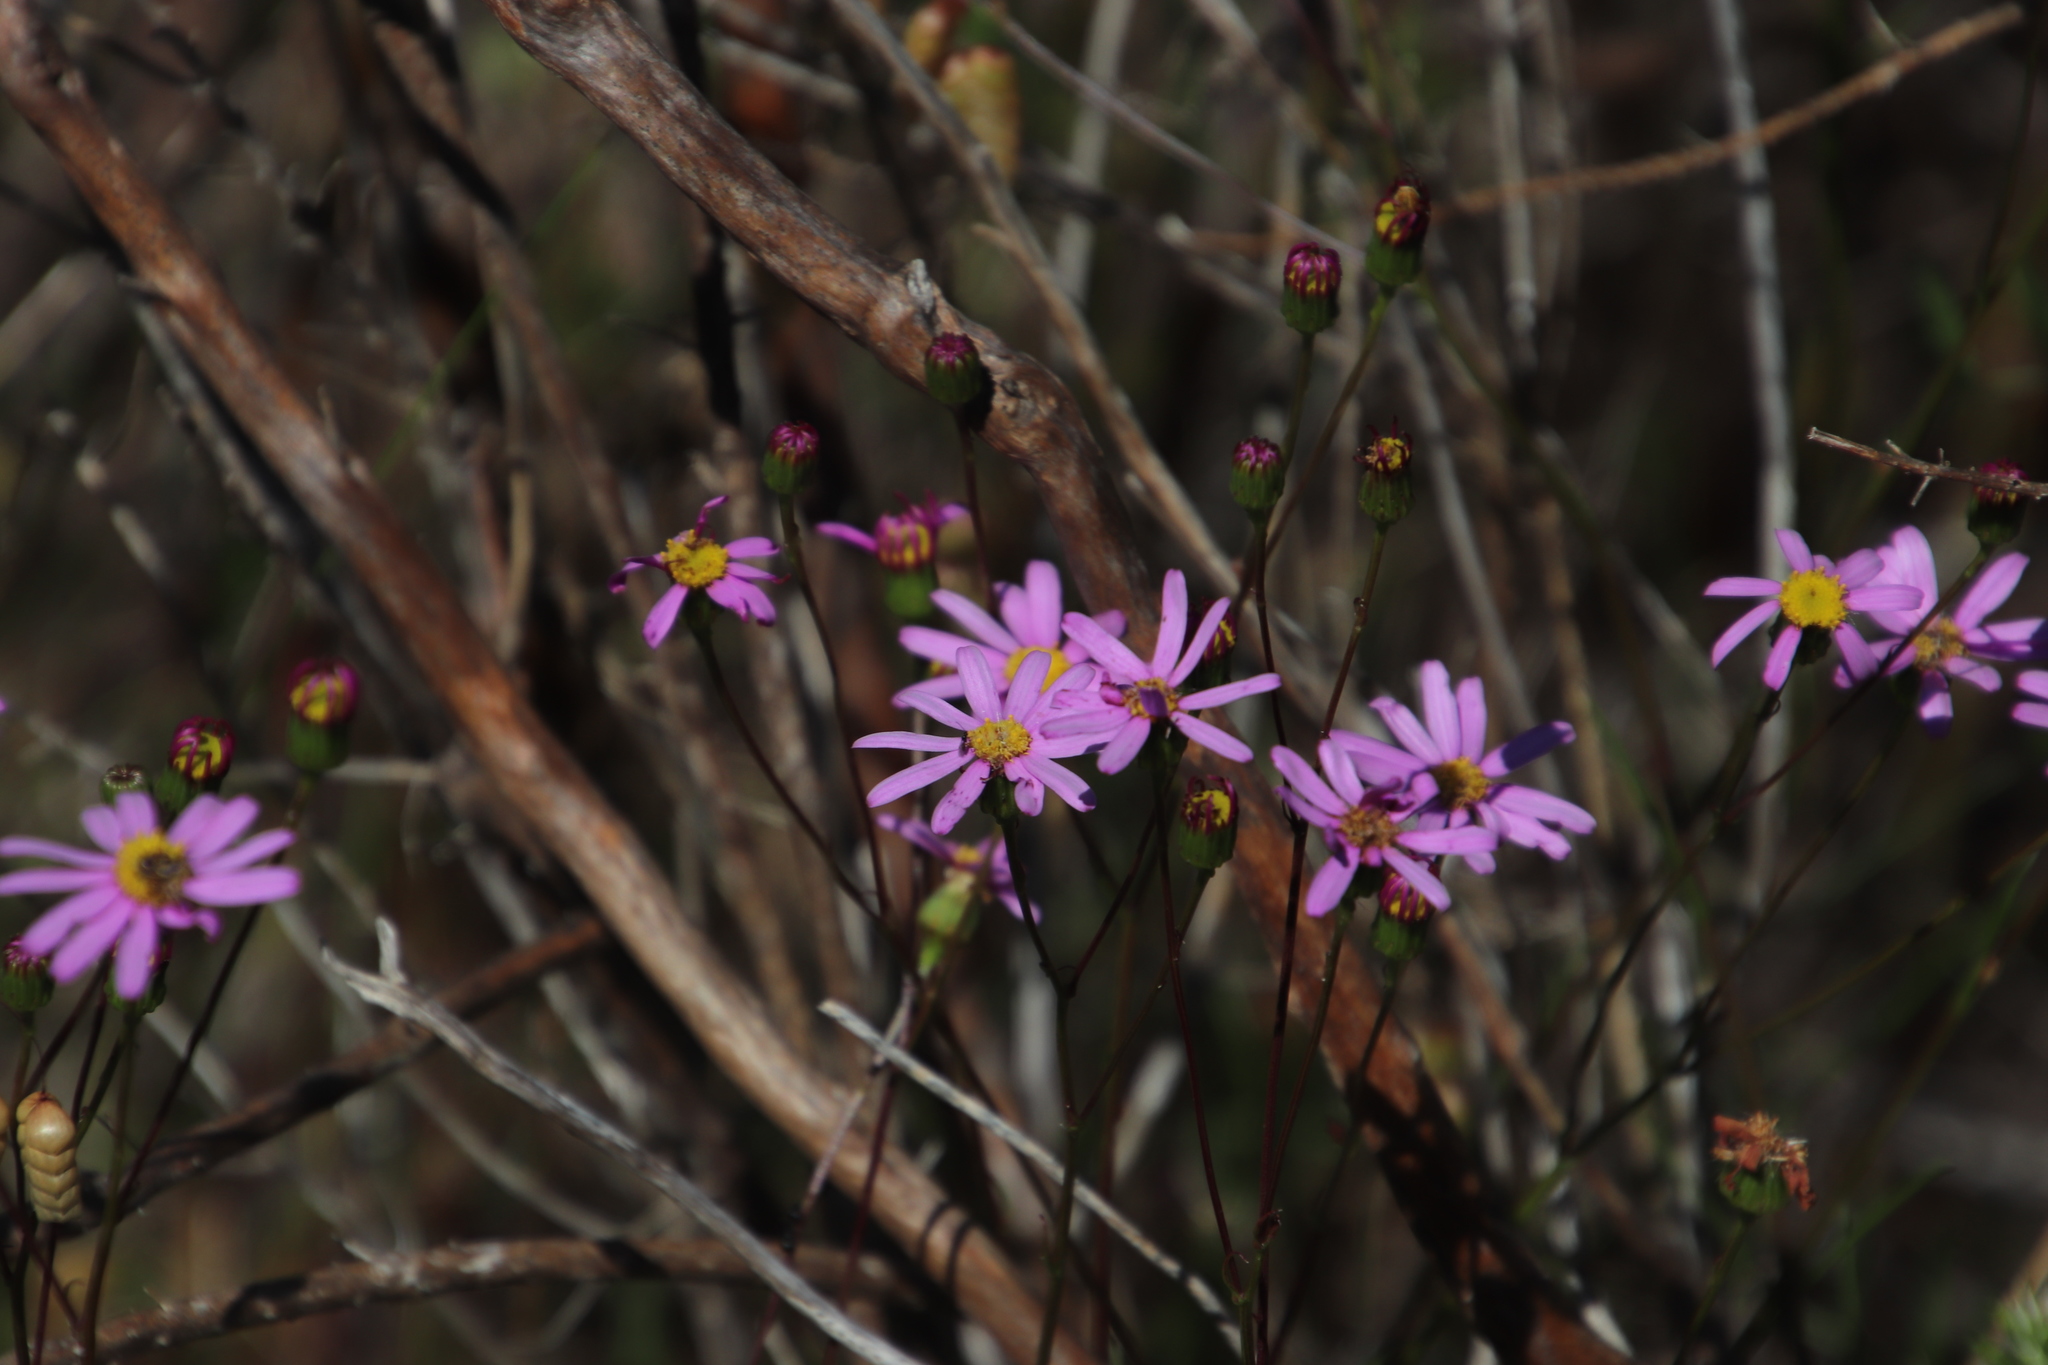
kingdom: Plantae
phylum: Tracheophyta
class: Magnoliopsida
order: Asterales
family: Asteraceae
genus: Senecio
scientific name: Senecio umbellatus
